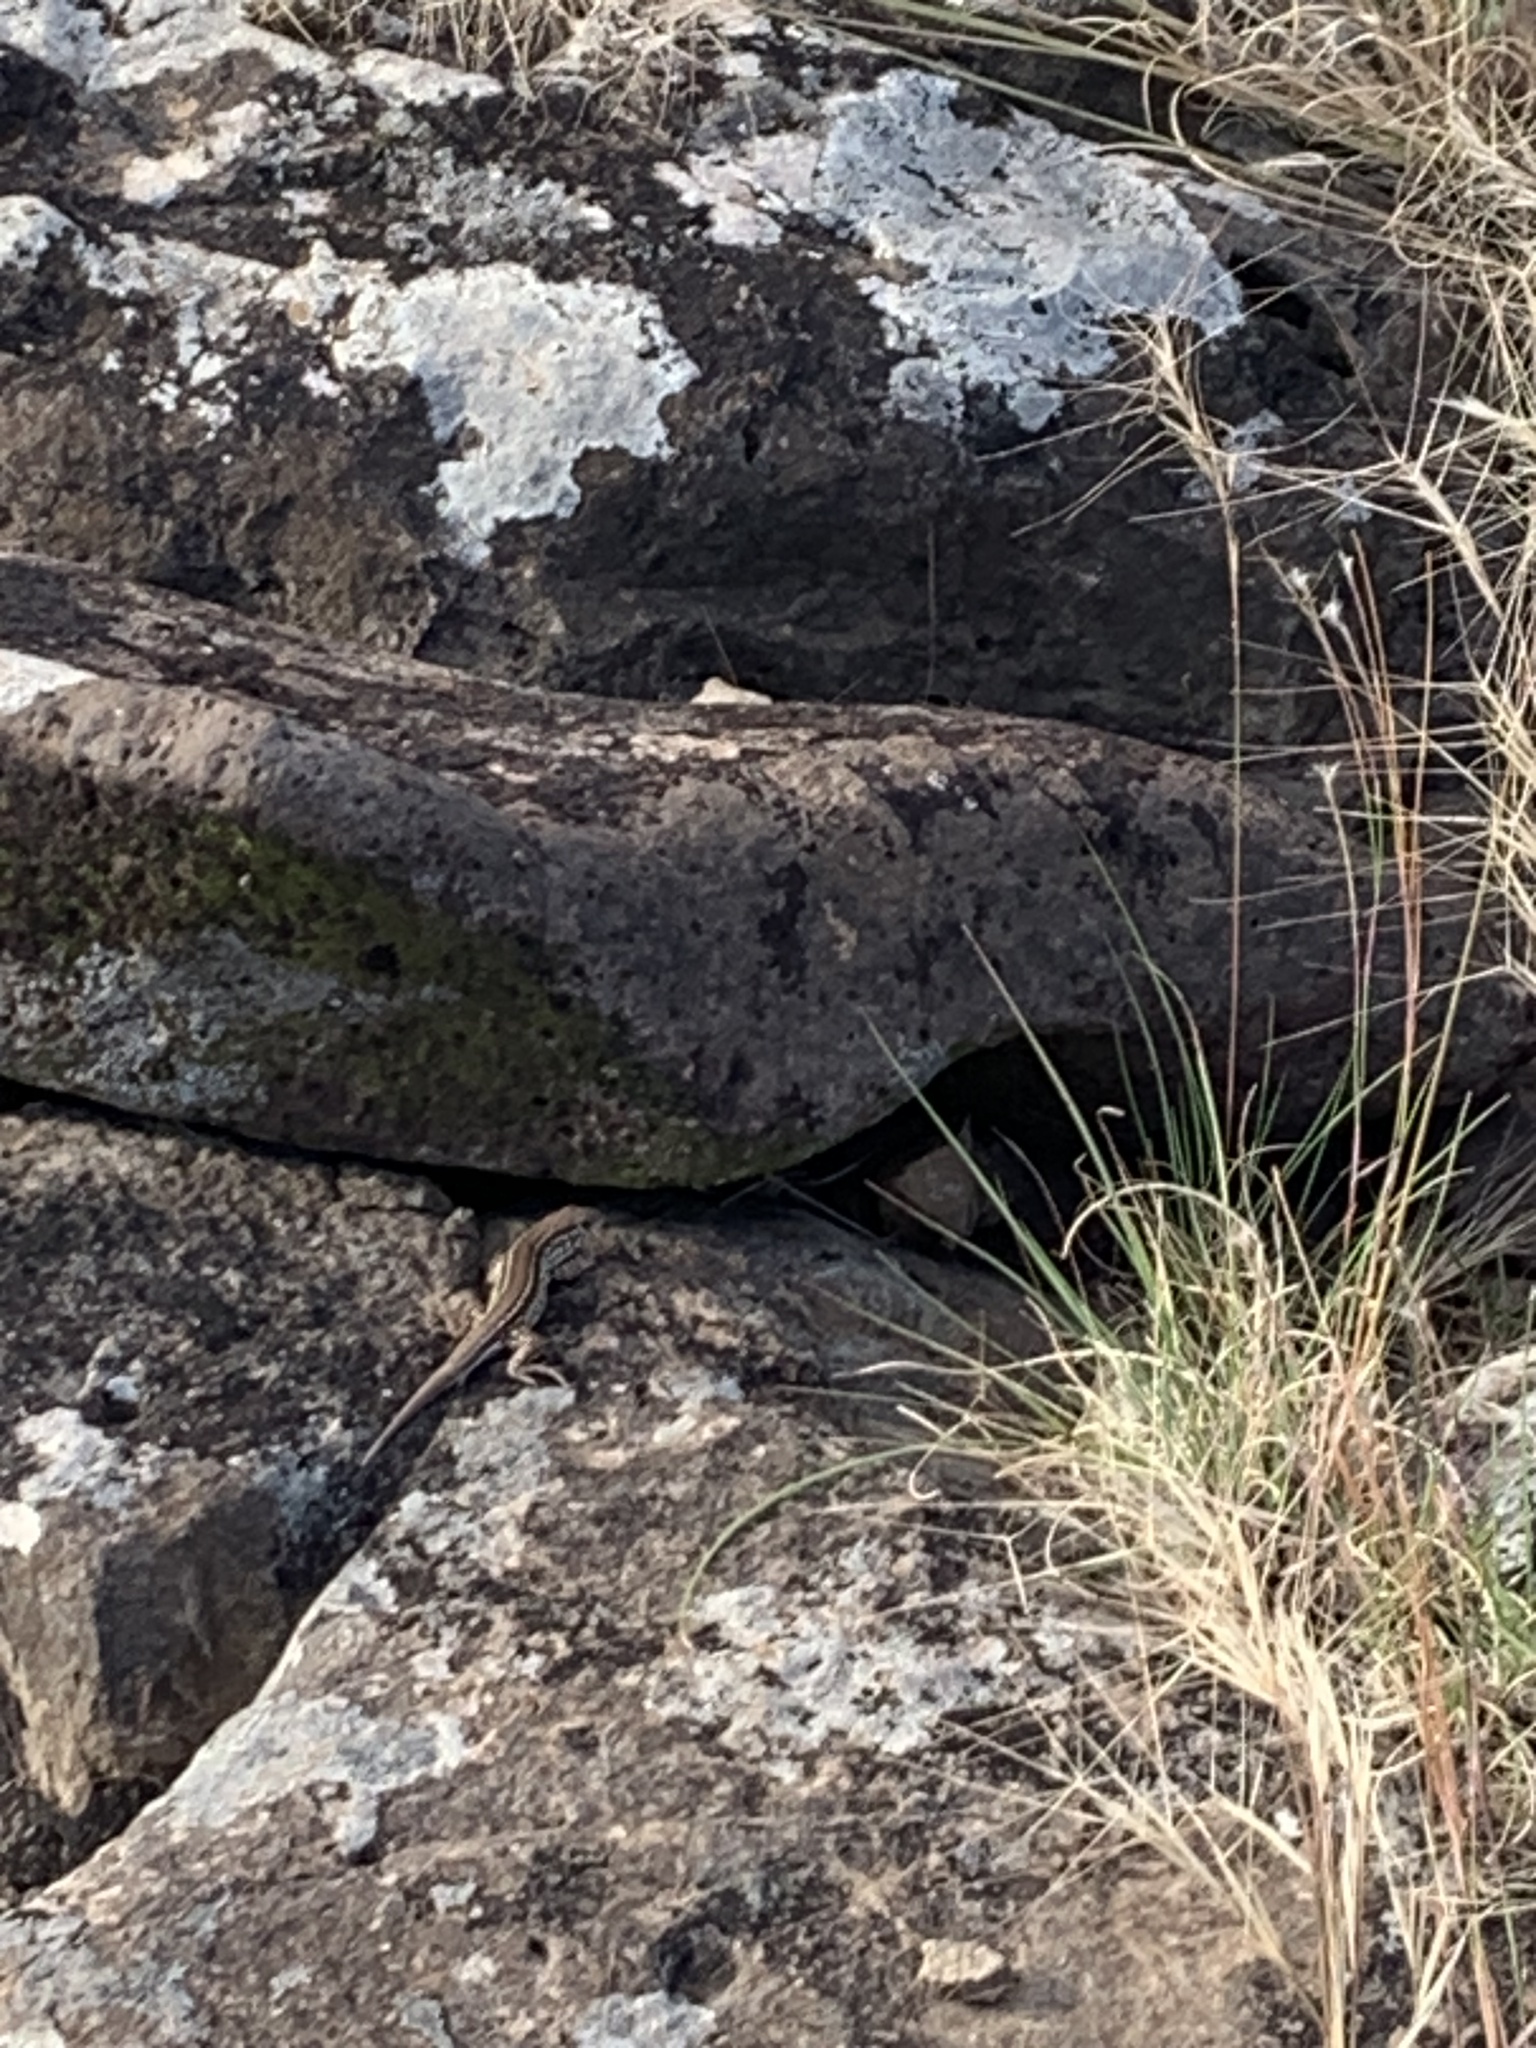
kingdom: Animalia
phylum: Chordata
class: Squamata
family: Teiidae
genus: Contomastix
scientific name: Contomastix lacertoides
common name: Bibron's whiptail
